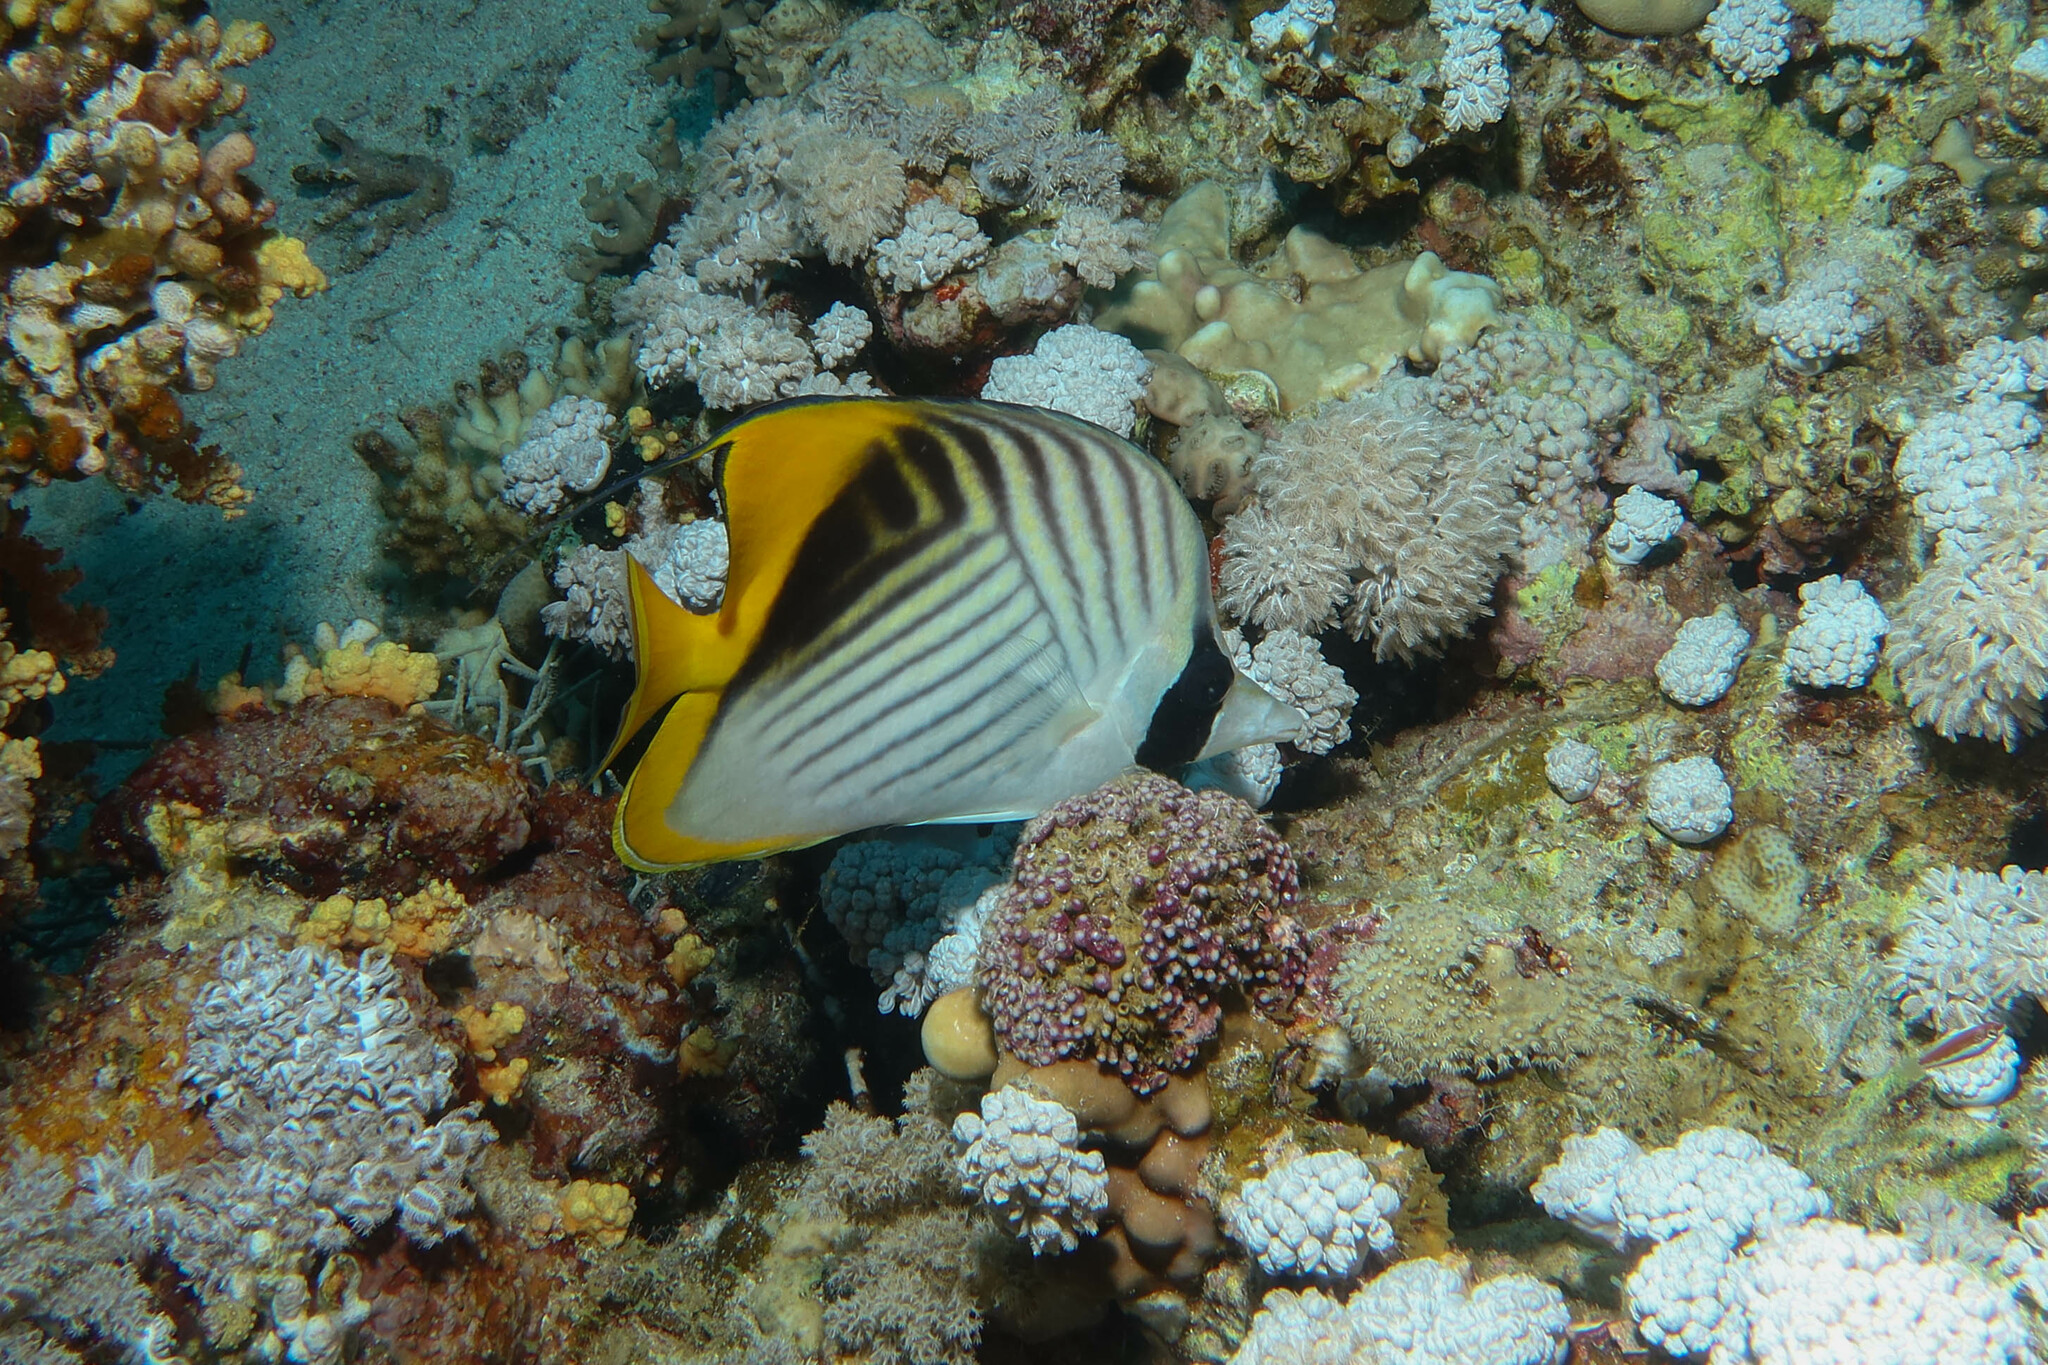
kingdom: Animalia
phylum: Chordata
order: Perciformes
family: Chaetodontidae
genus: Chaetodon
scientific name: Chaetodon auriga
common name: Threadfin butterflyfish
